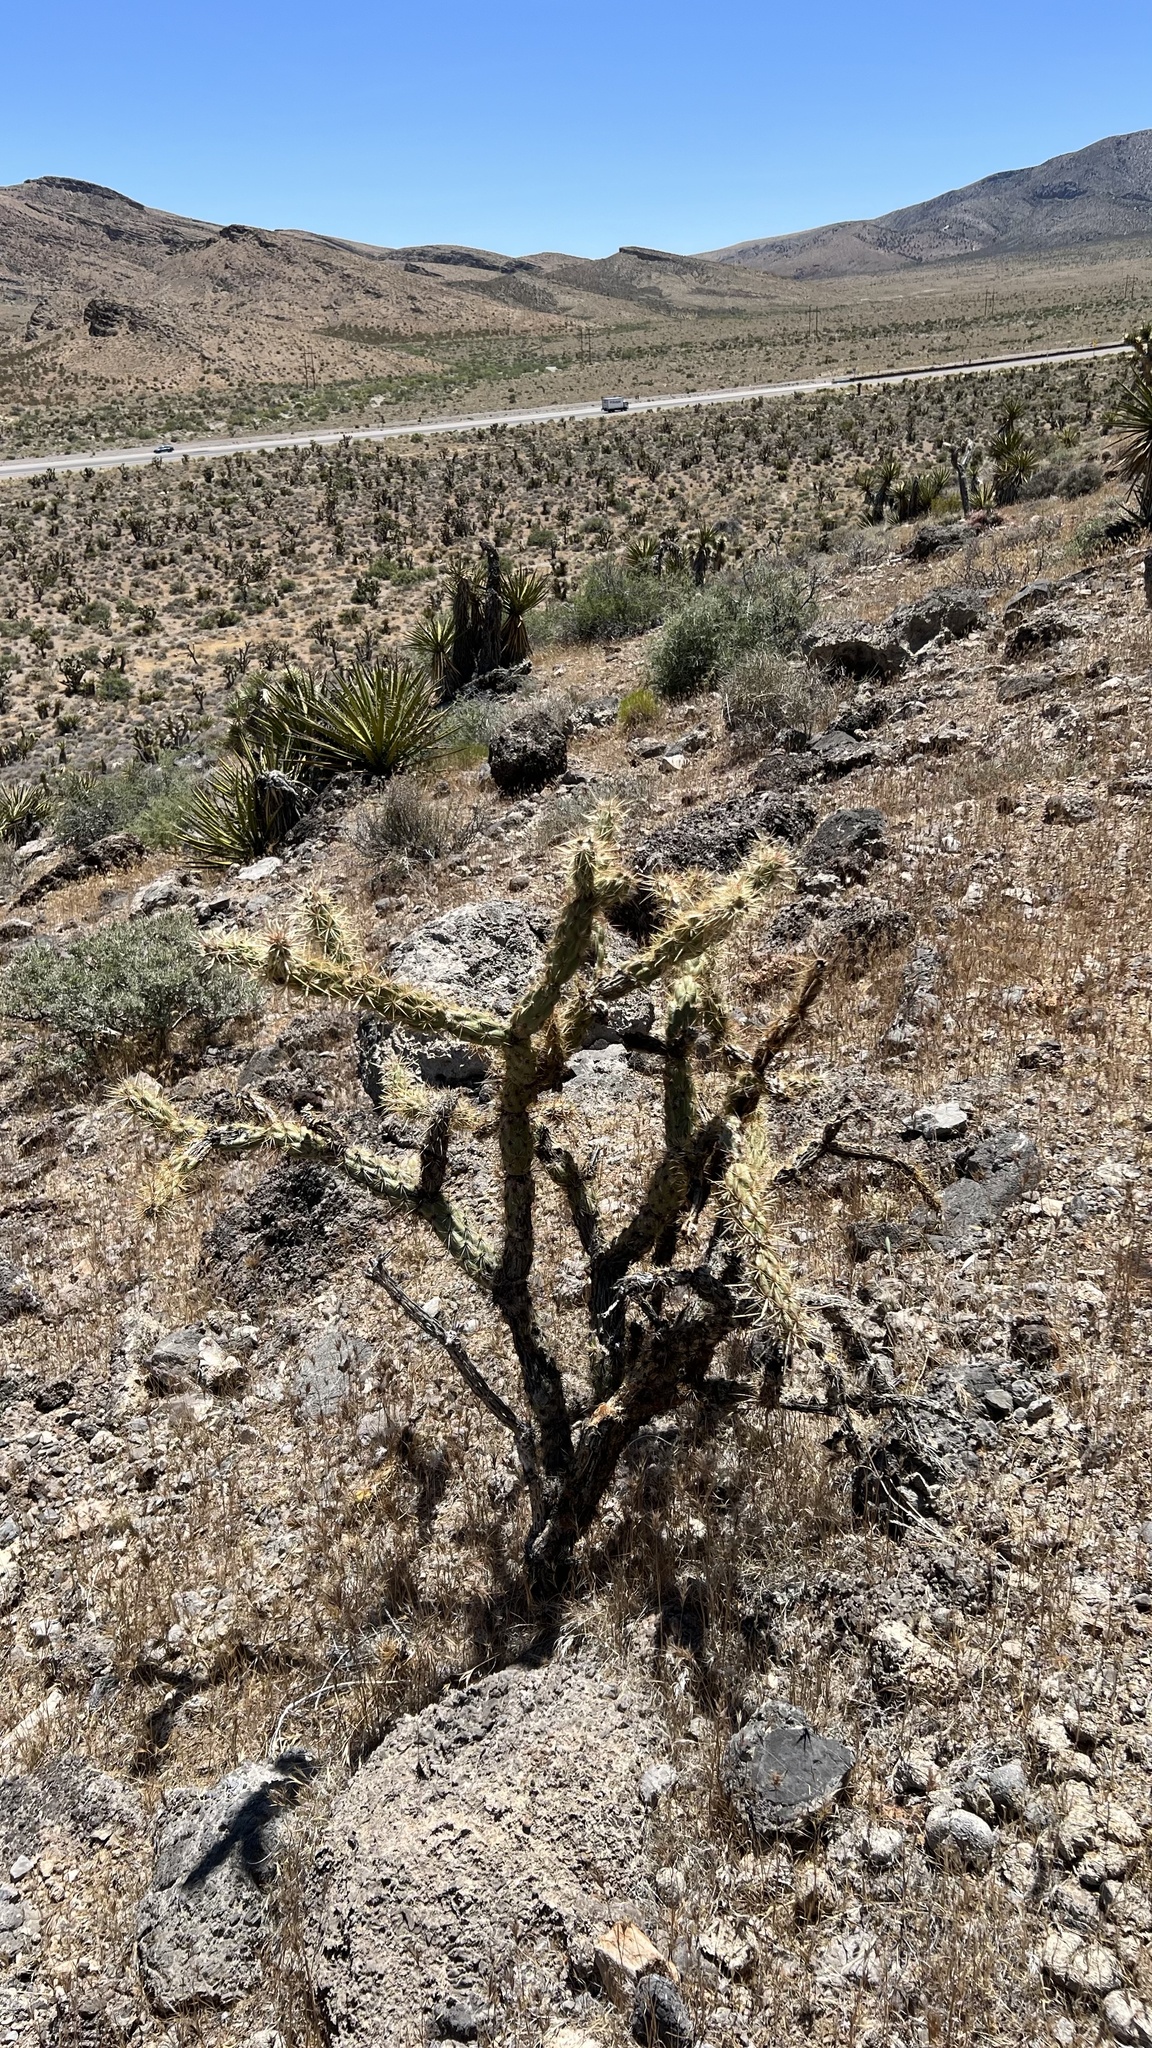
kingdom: Plantae
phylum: Tracheophyta
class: Magnoliopsida
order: Caryophyllales
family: Cactaceae
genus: Cylindropuntia
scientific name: Cylindropuntia acanthocarpa
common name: Buckhorn cholla
